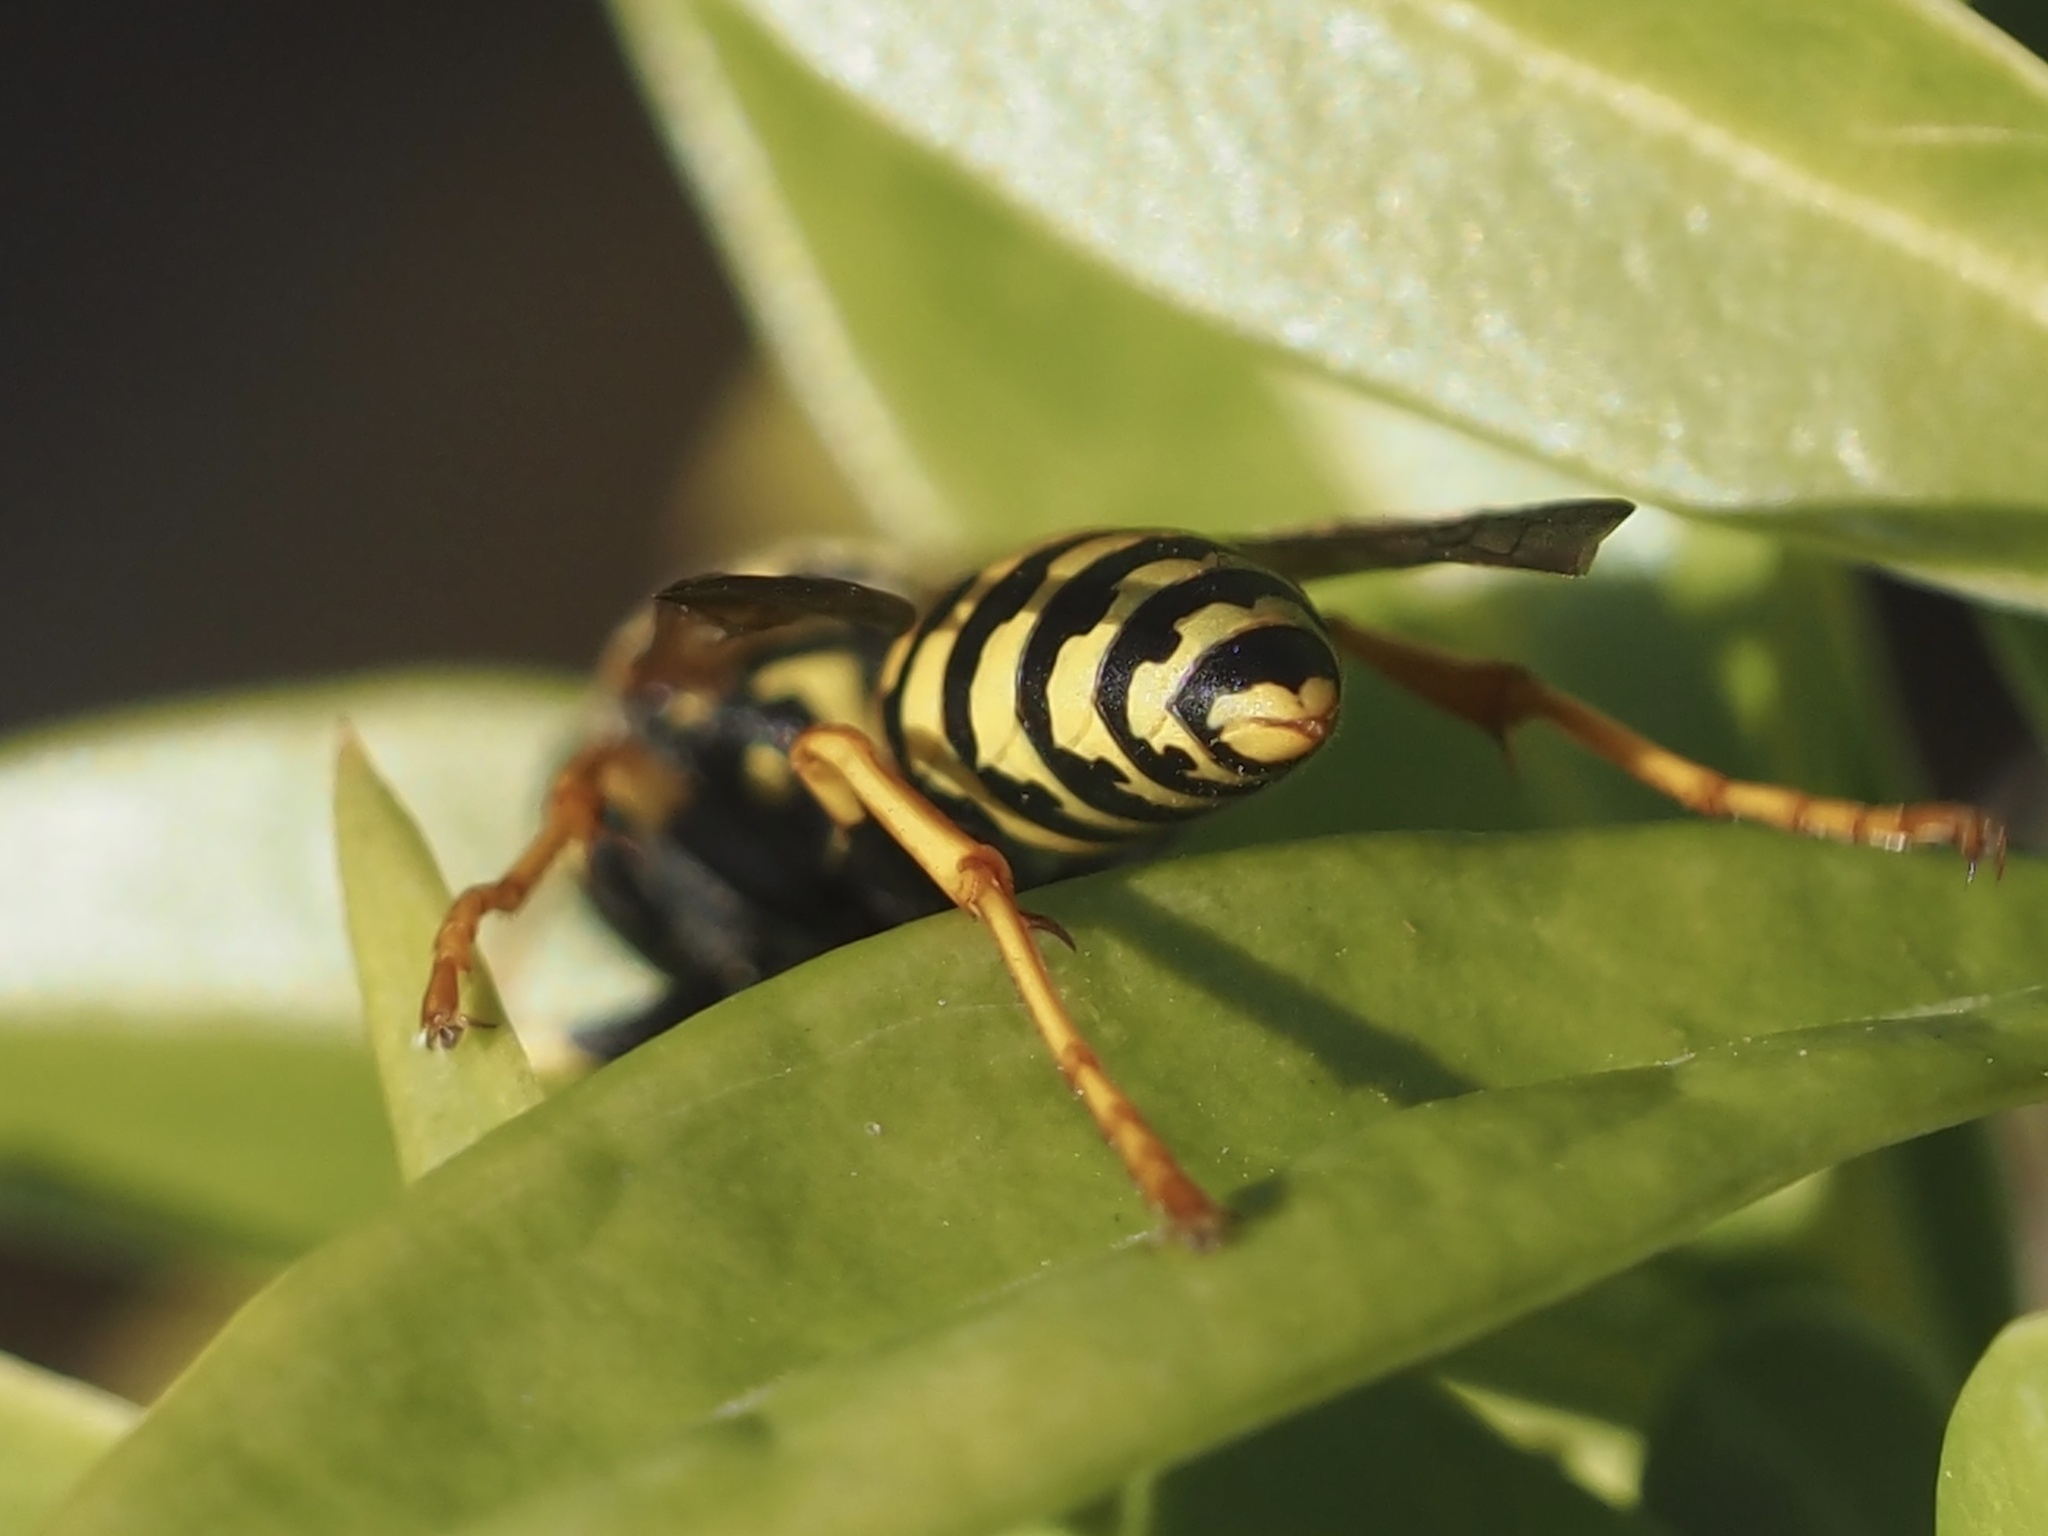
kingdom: Animalia
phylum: Arthropoda
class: Insecta
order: Hymenoptera
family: Eumenidae
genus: Polistes
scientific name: Polistes dominula
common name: Paper wasp
